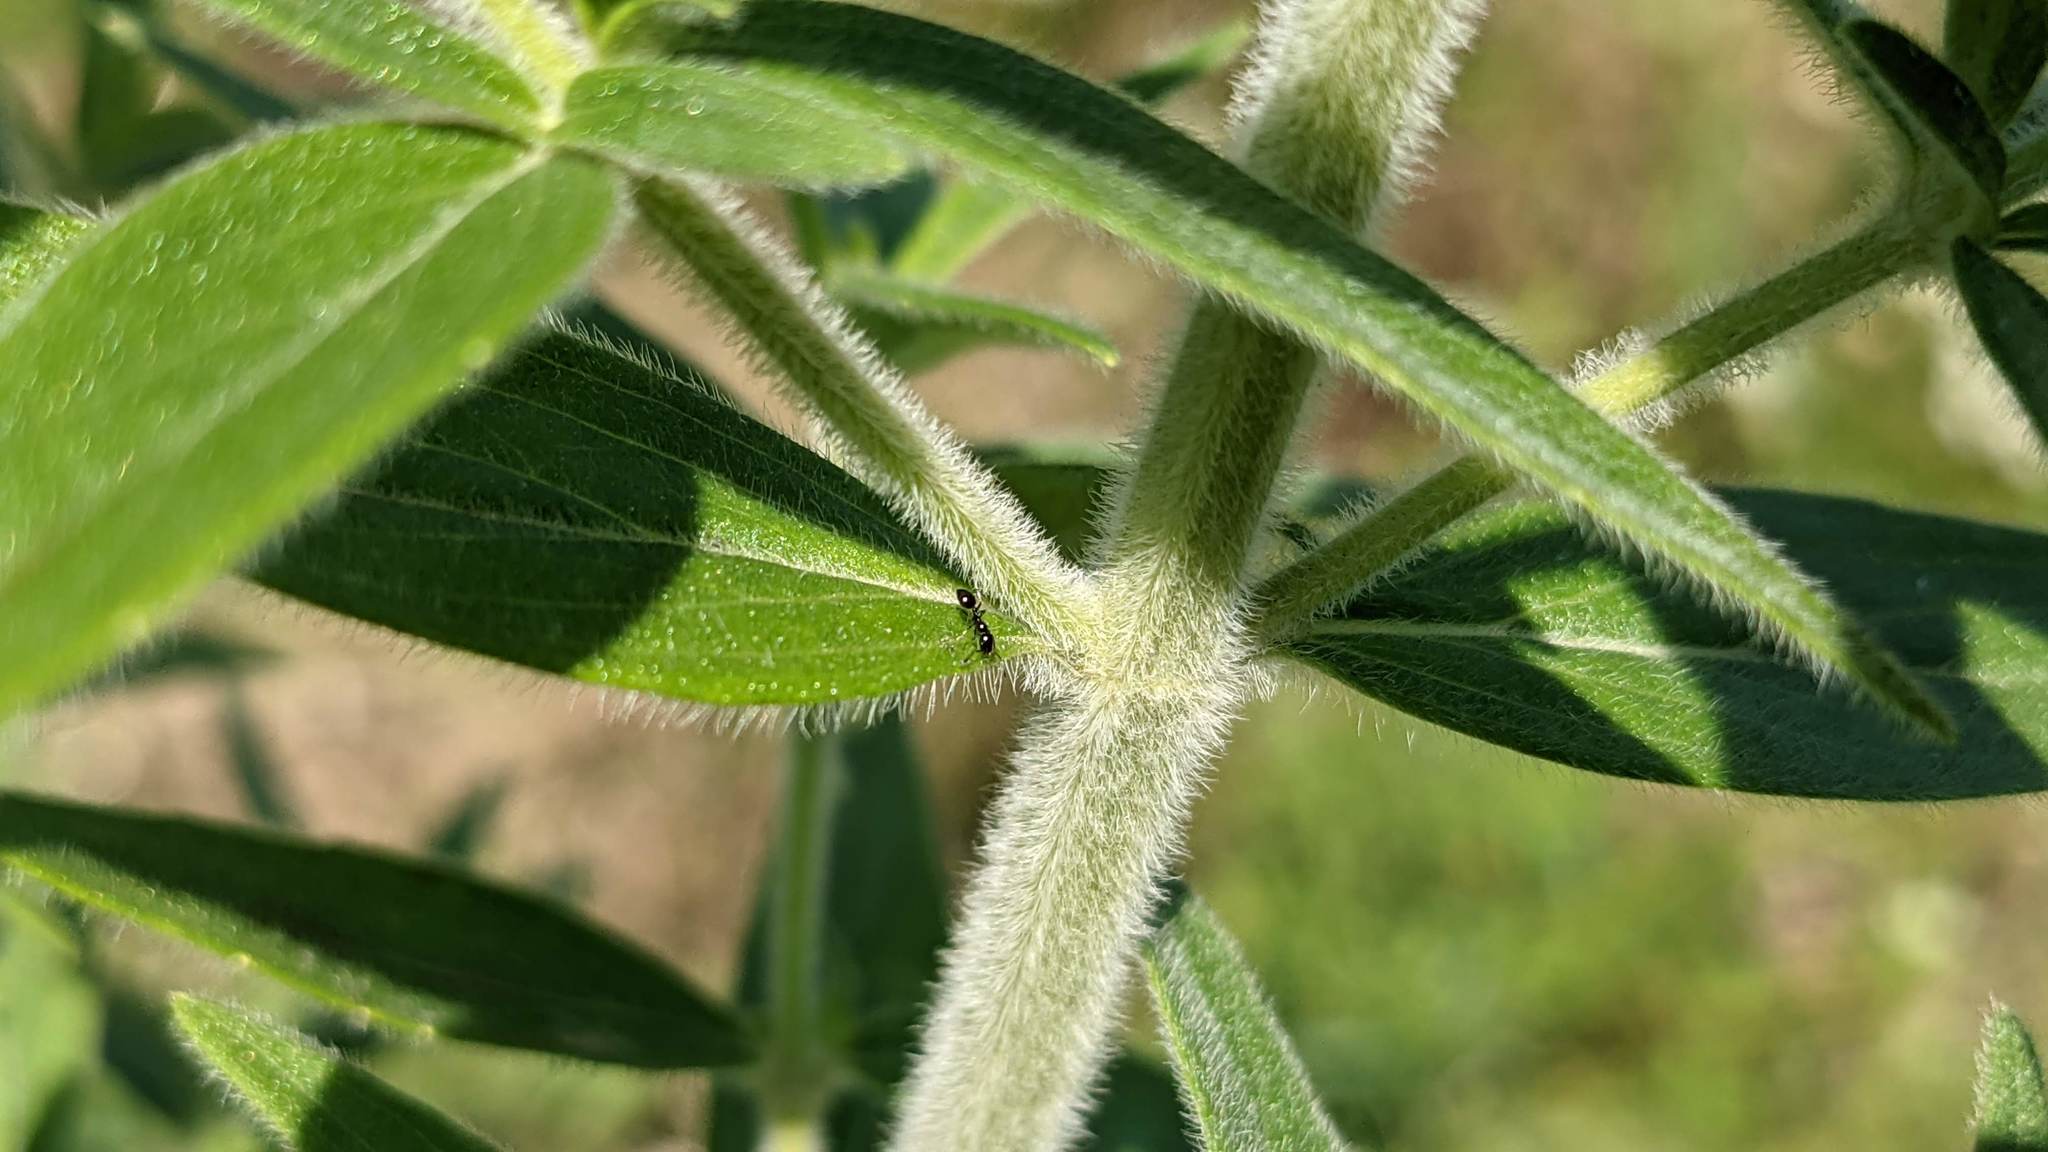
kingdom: Plantae
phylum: Tracheophyta
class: Magnoliopsida
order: Lamiales
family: Lamiaceae
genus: Pycnanthemum
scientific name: Pycnanthemum verticillatum
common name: Whorled mountain-mint
